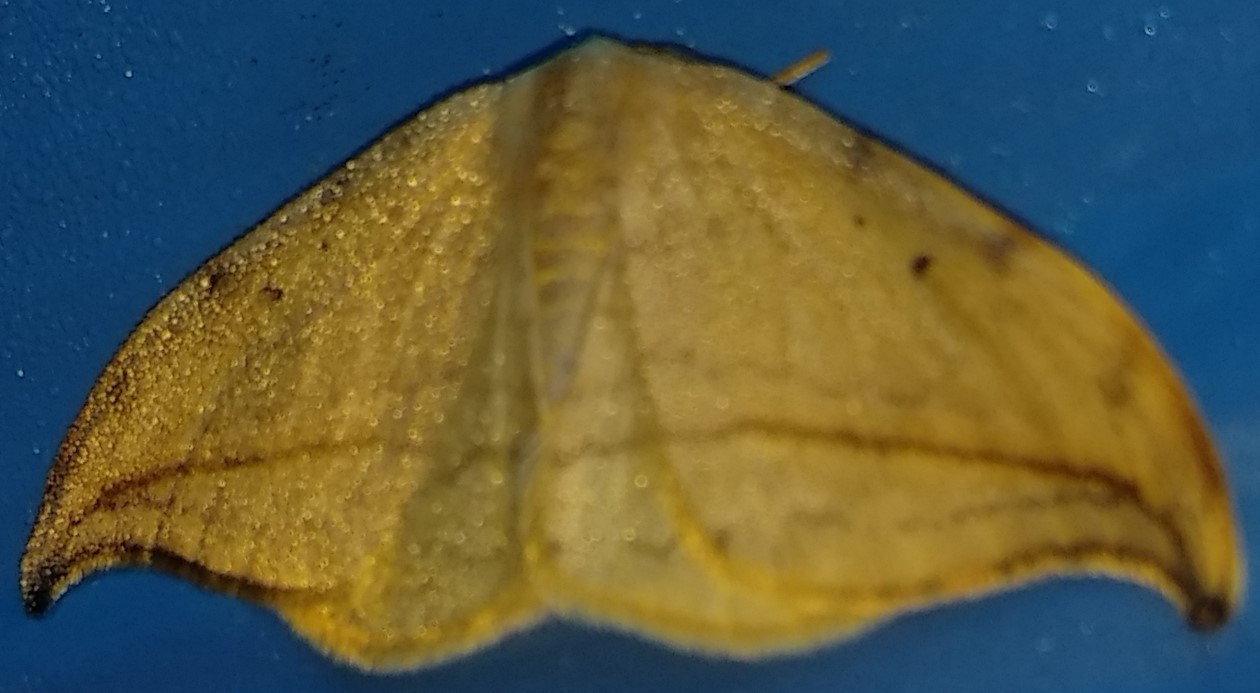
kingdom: Animalia
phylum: Arthropoda
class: Insecta
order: Lepidoptera
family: Drepanidae
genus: Drepana
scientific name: Drepana arcuata
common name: Arched hooktip moth
